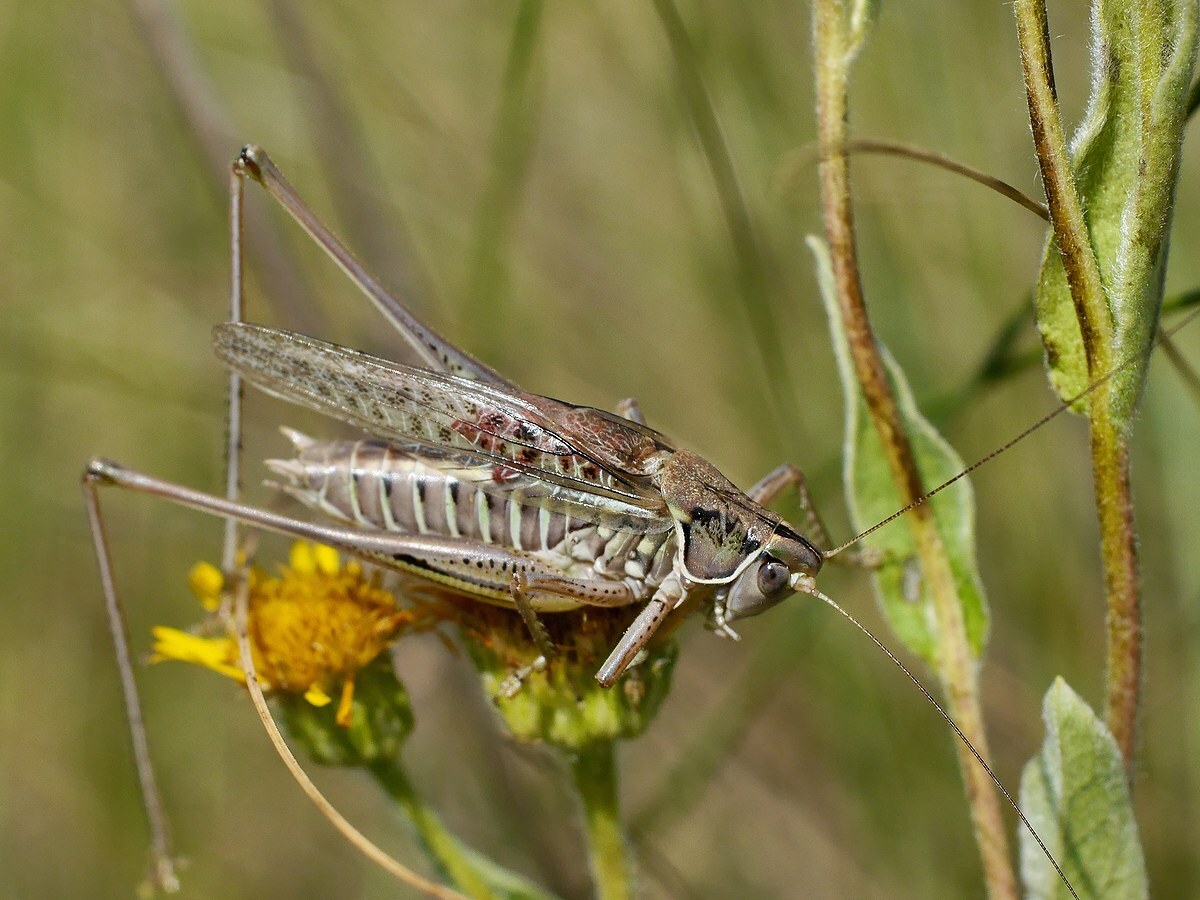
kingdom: Animalia
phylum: Arthropoda
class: Insecta
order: Orthoptera
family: Tettigoniidae
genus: Gampsocleis
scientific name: Gampsocleis glabra
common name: Heath bushcricket
